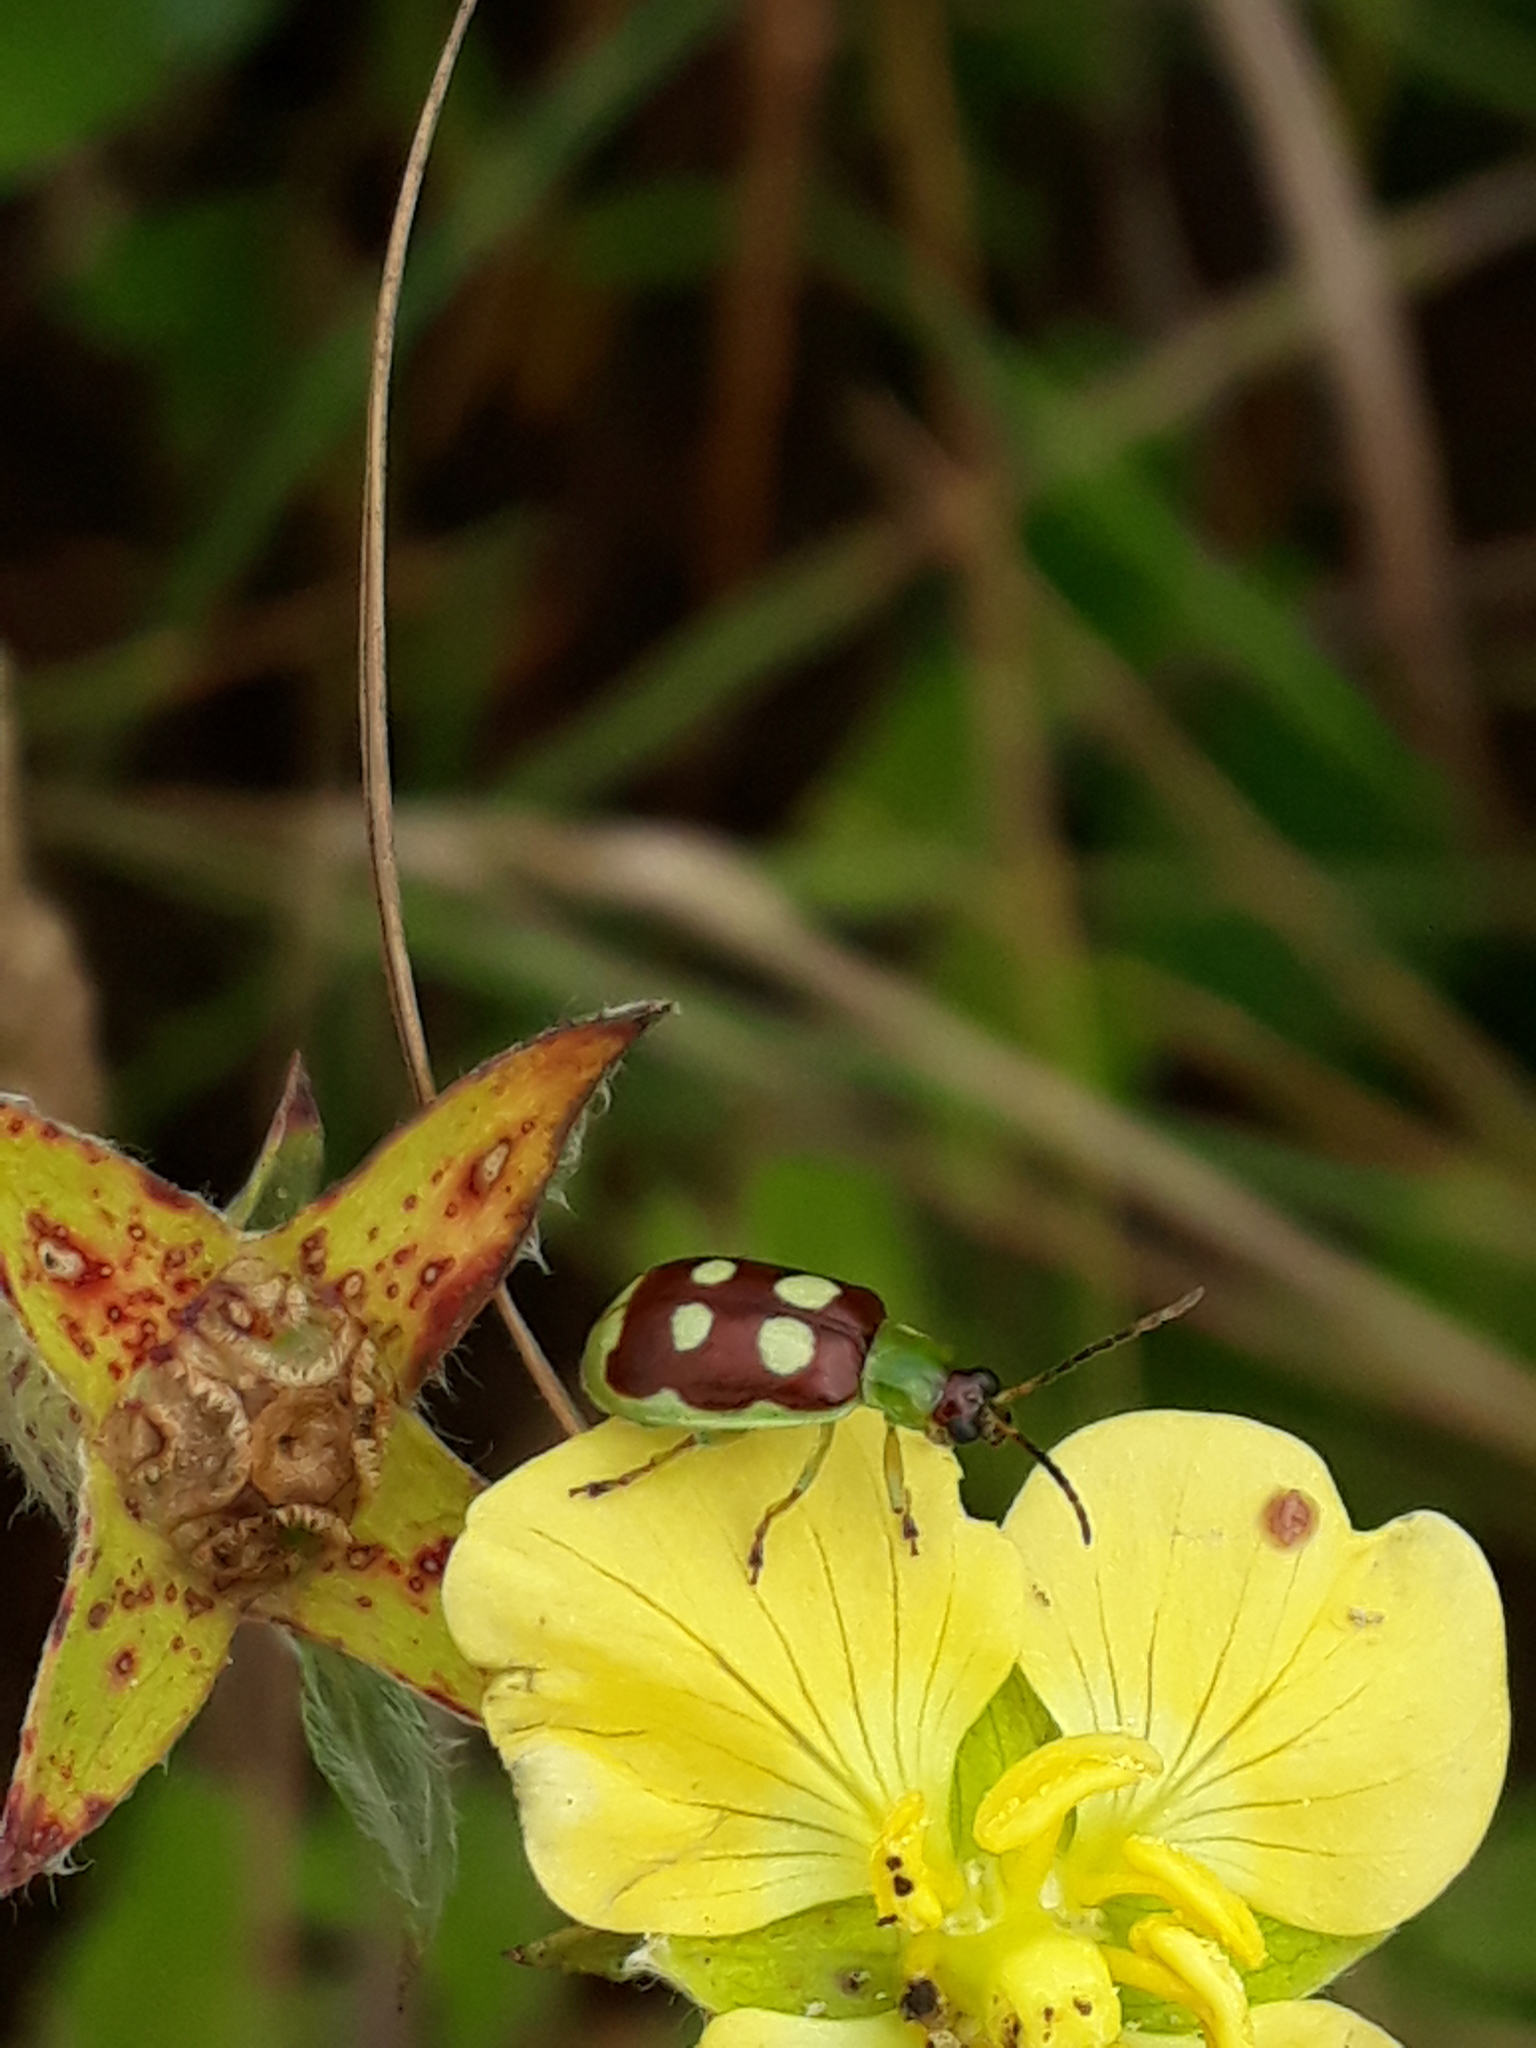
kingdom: Animalia
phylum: Arthropoda
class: Insecta
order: Coleoptera
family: Chrysomelidae
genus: Basiprionota
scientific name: Basiprionota sinuata
